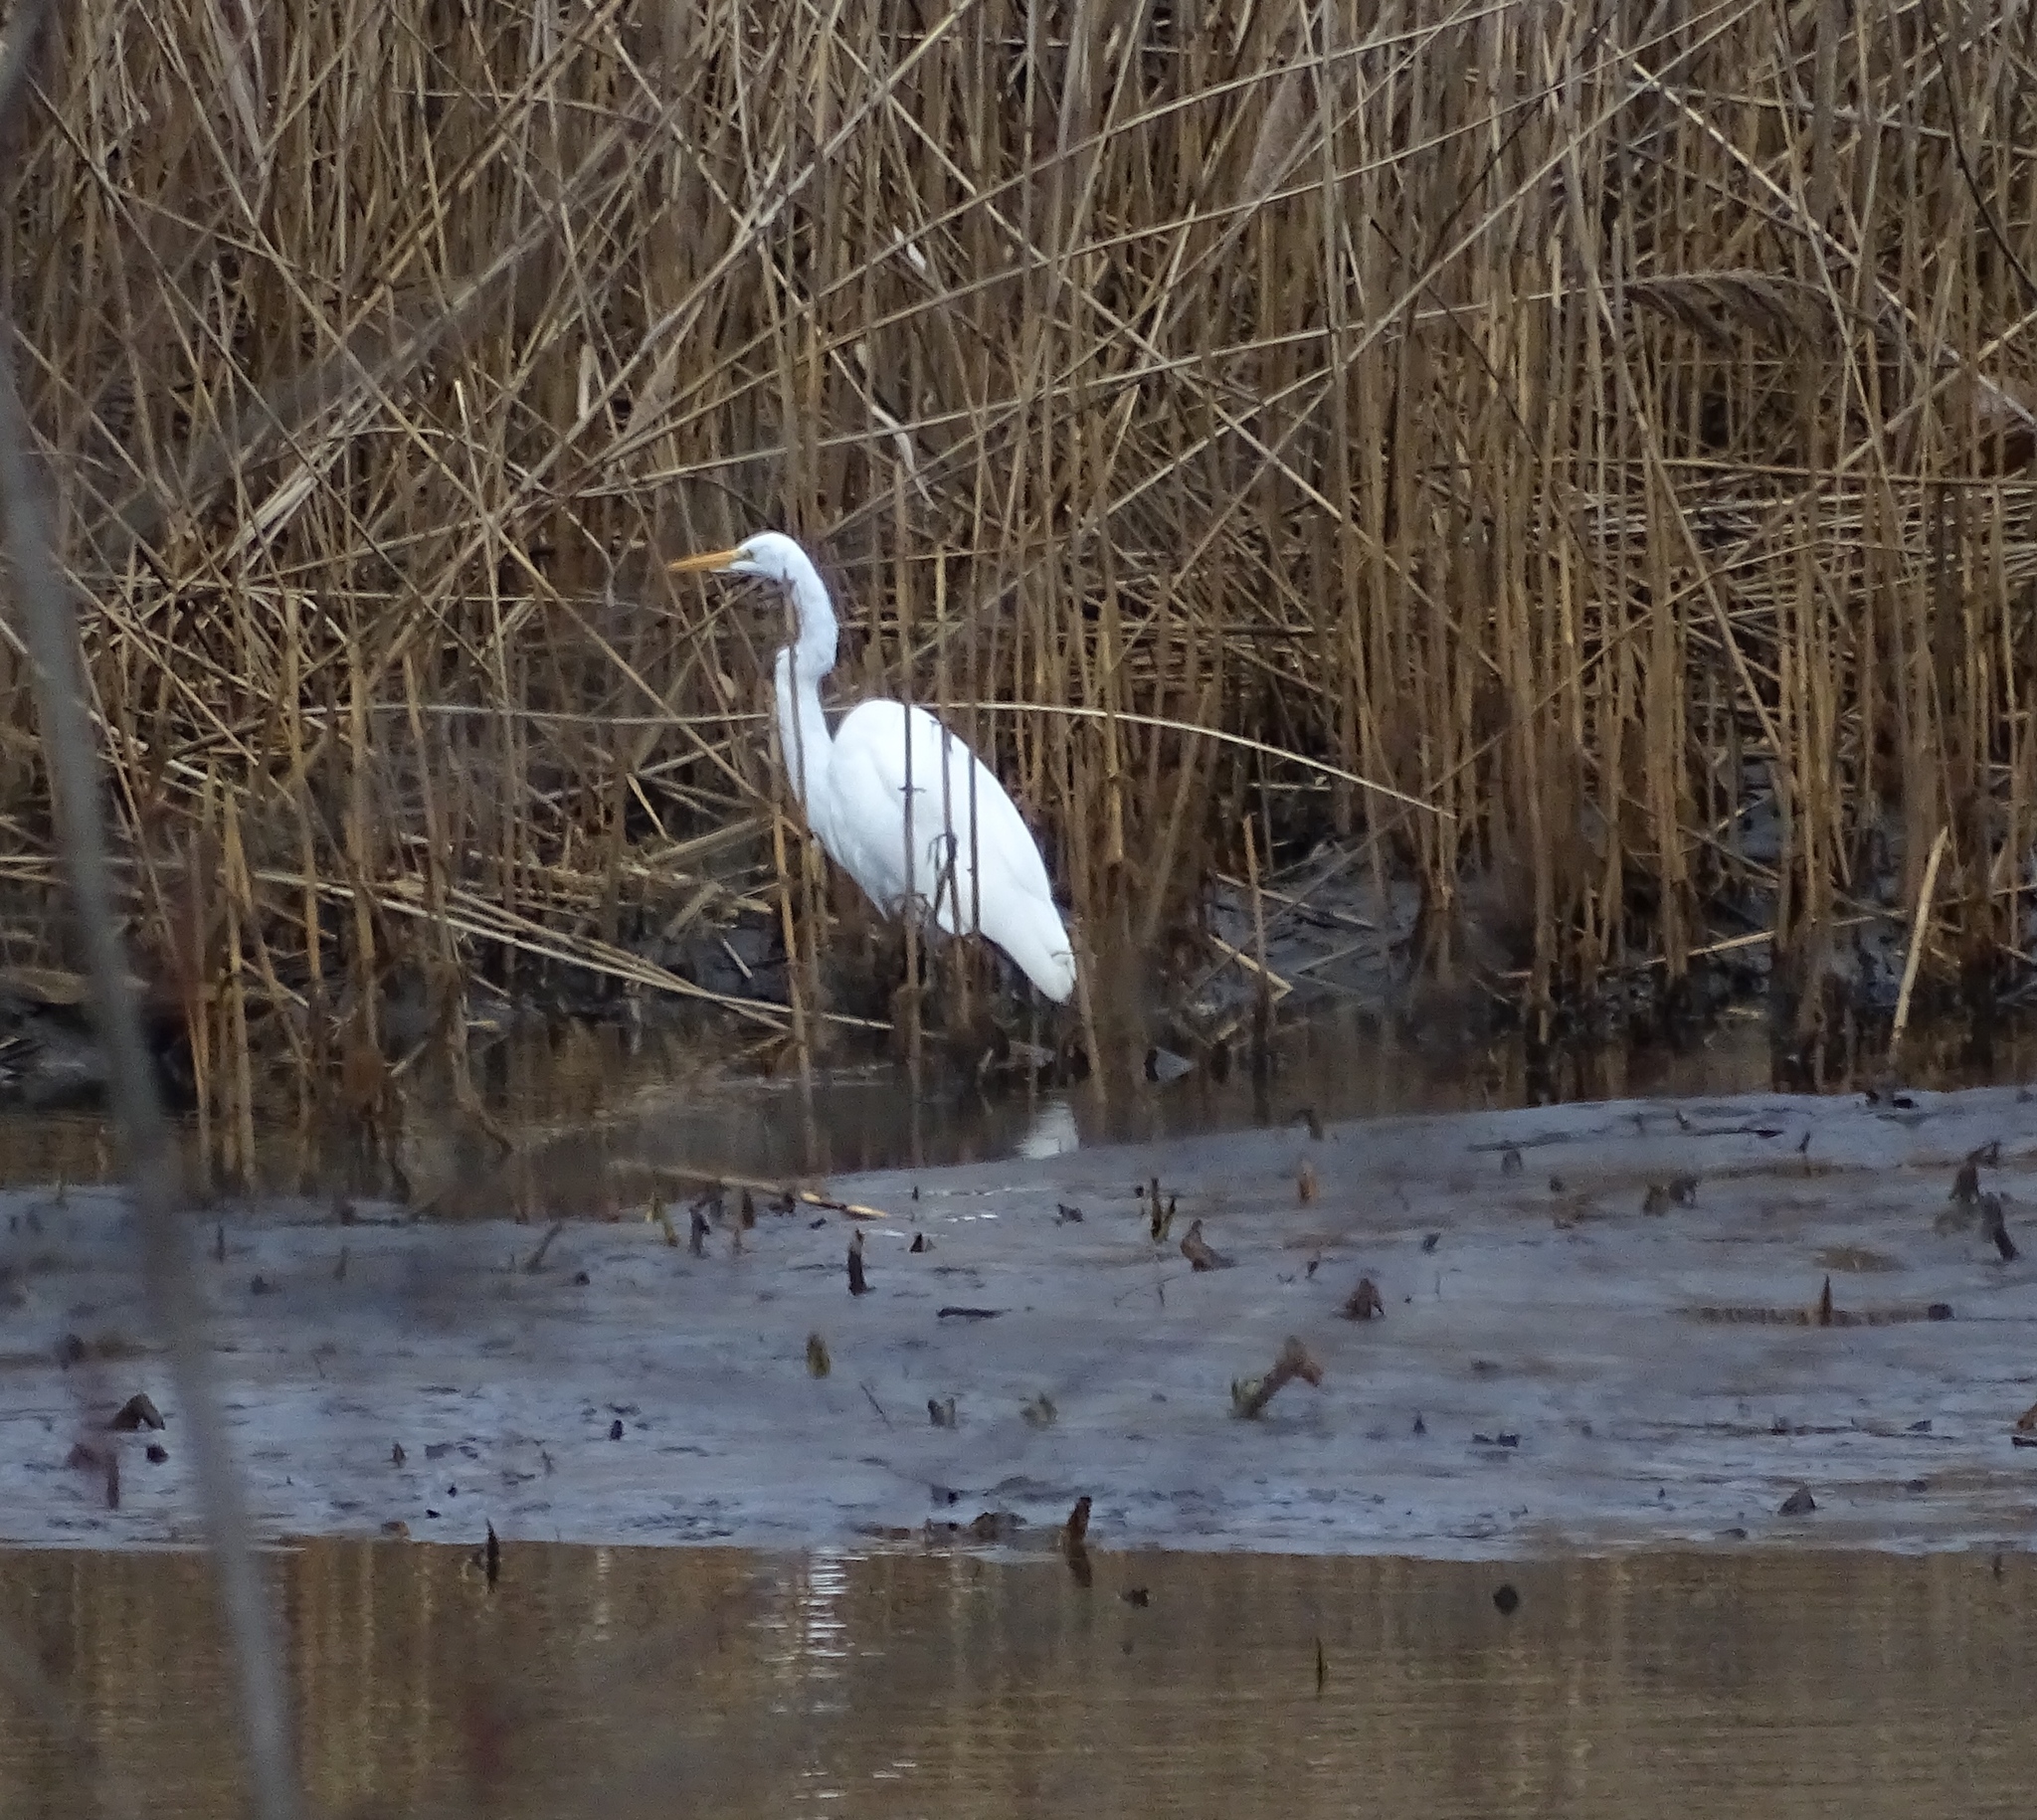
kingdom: Animalia
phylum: Chordata
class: Aves
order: Pelecaniformes
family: Ardeidae
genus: Ardea
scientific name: Ardea alba
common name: Great egret
